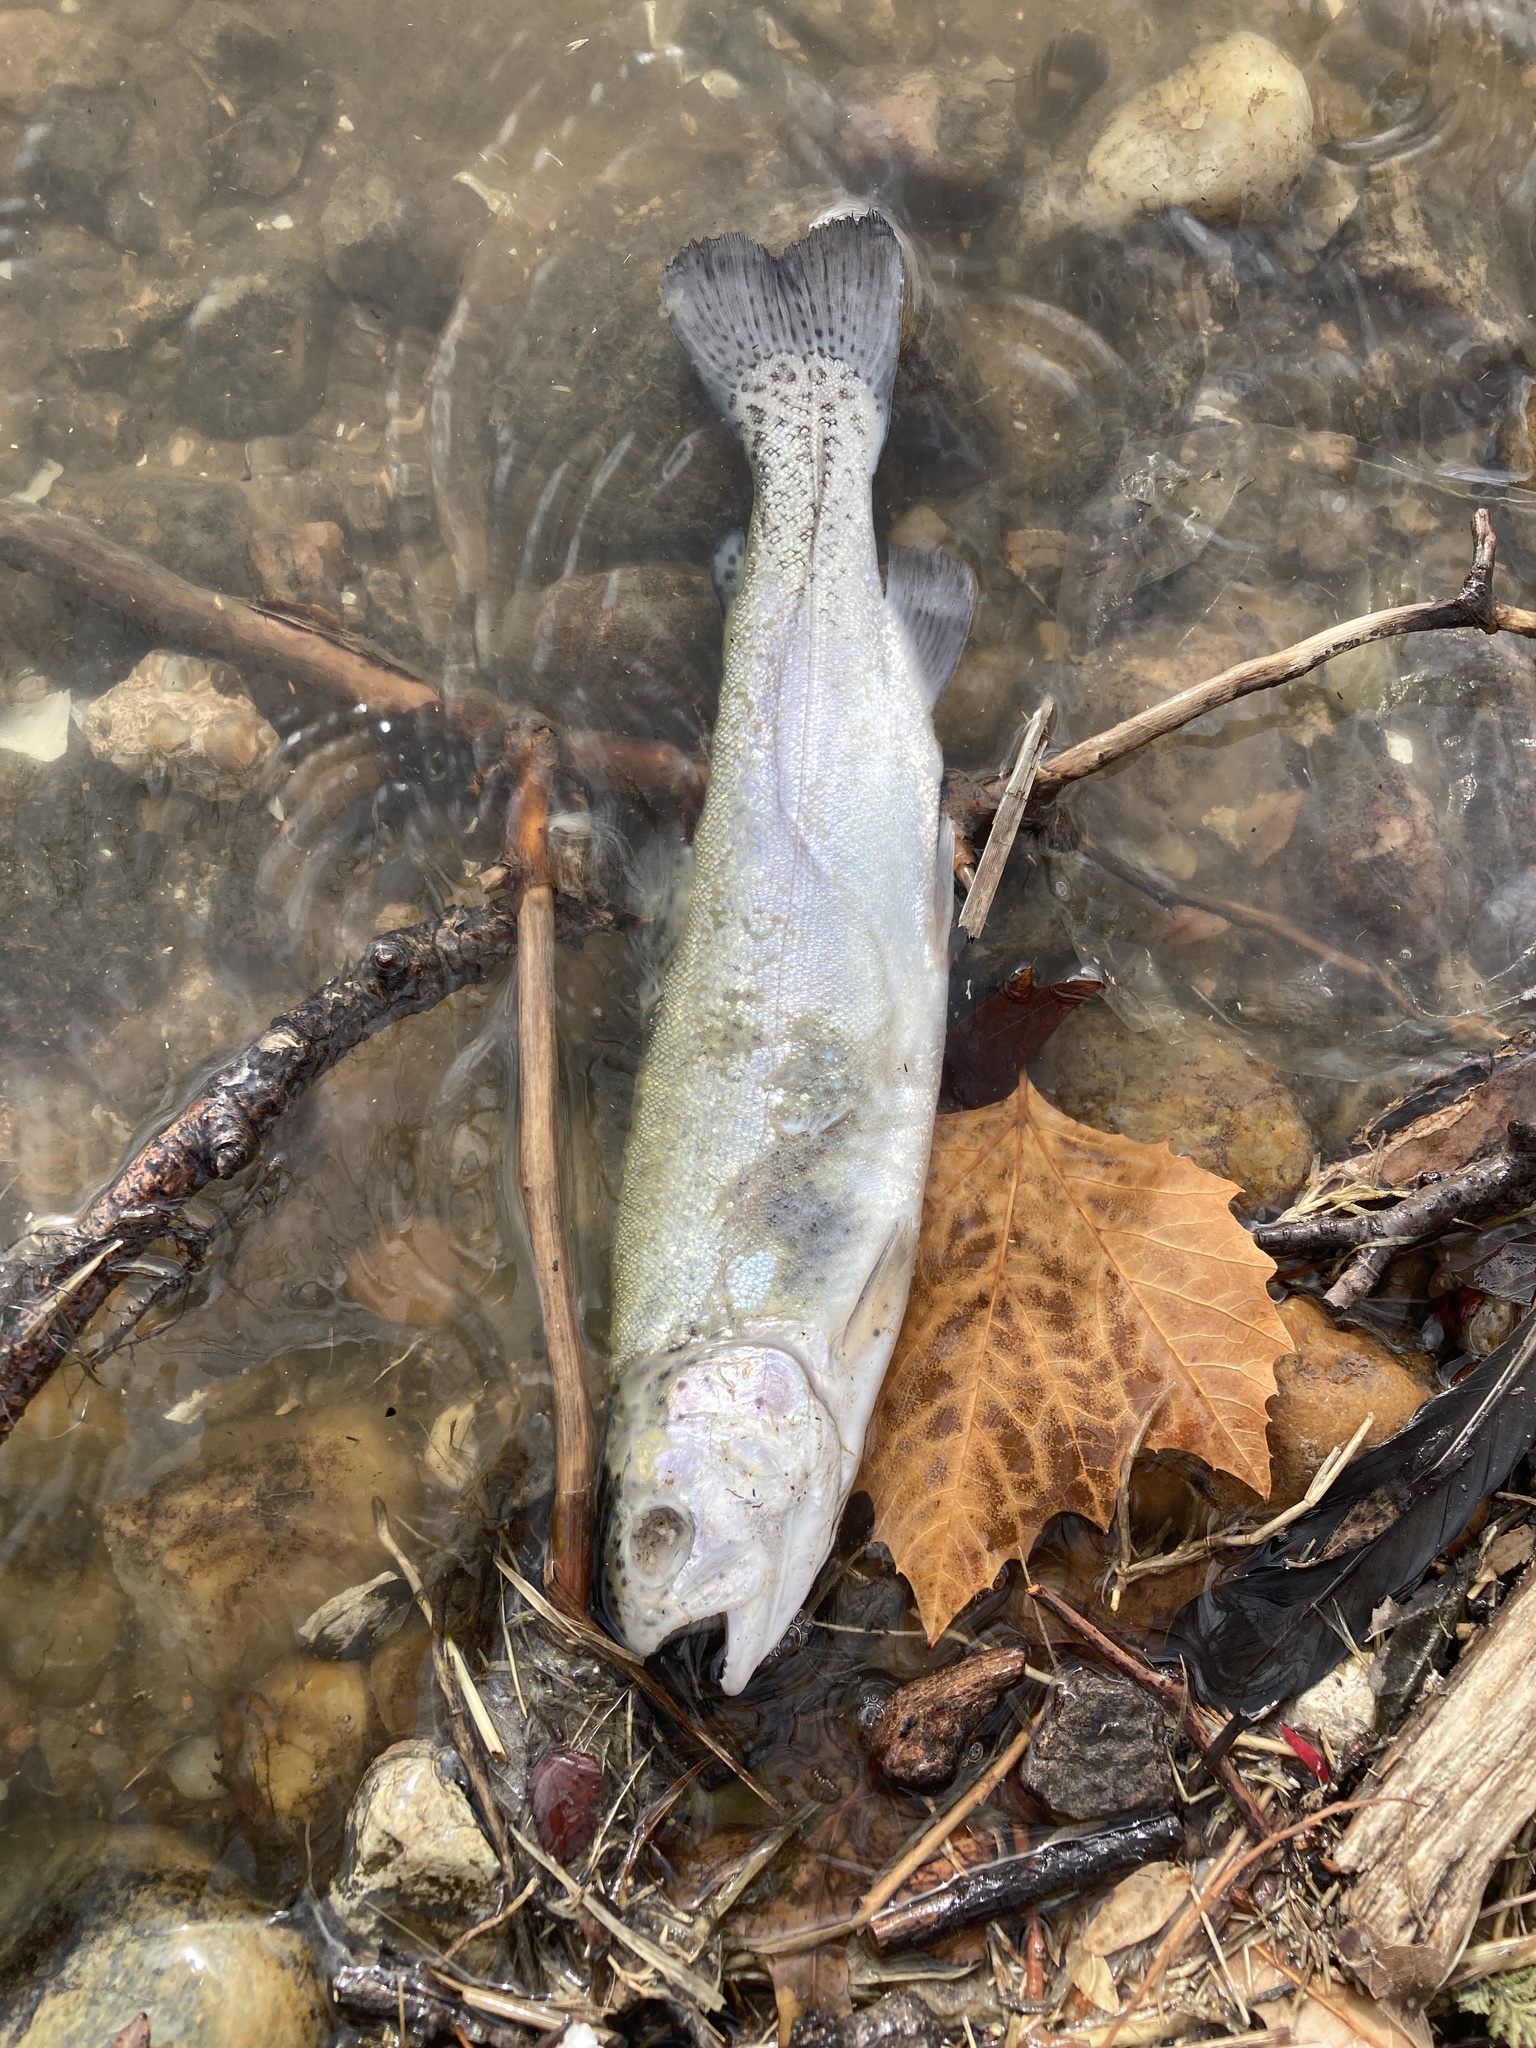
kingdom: Animalia
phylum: Chordata
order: Salmoniformes
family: Salmonidae
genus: Oncorhynchus
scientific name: Oncorhynchus mykiss
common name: Rainbow trout
